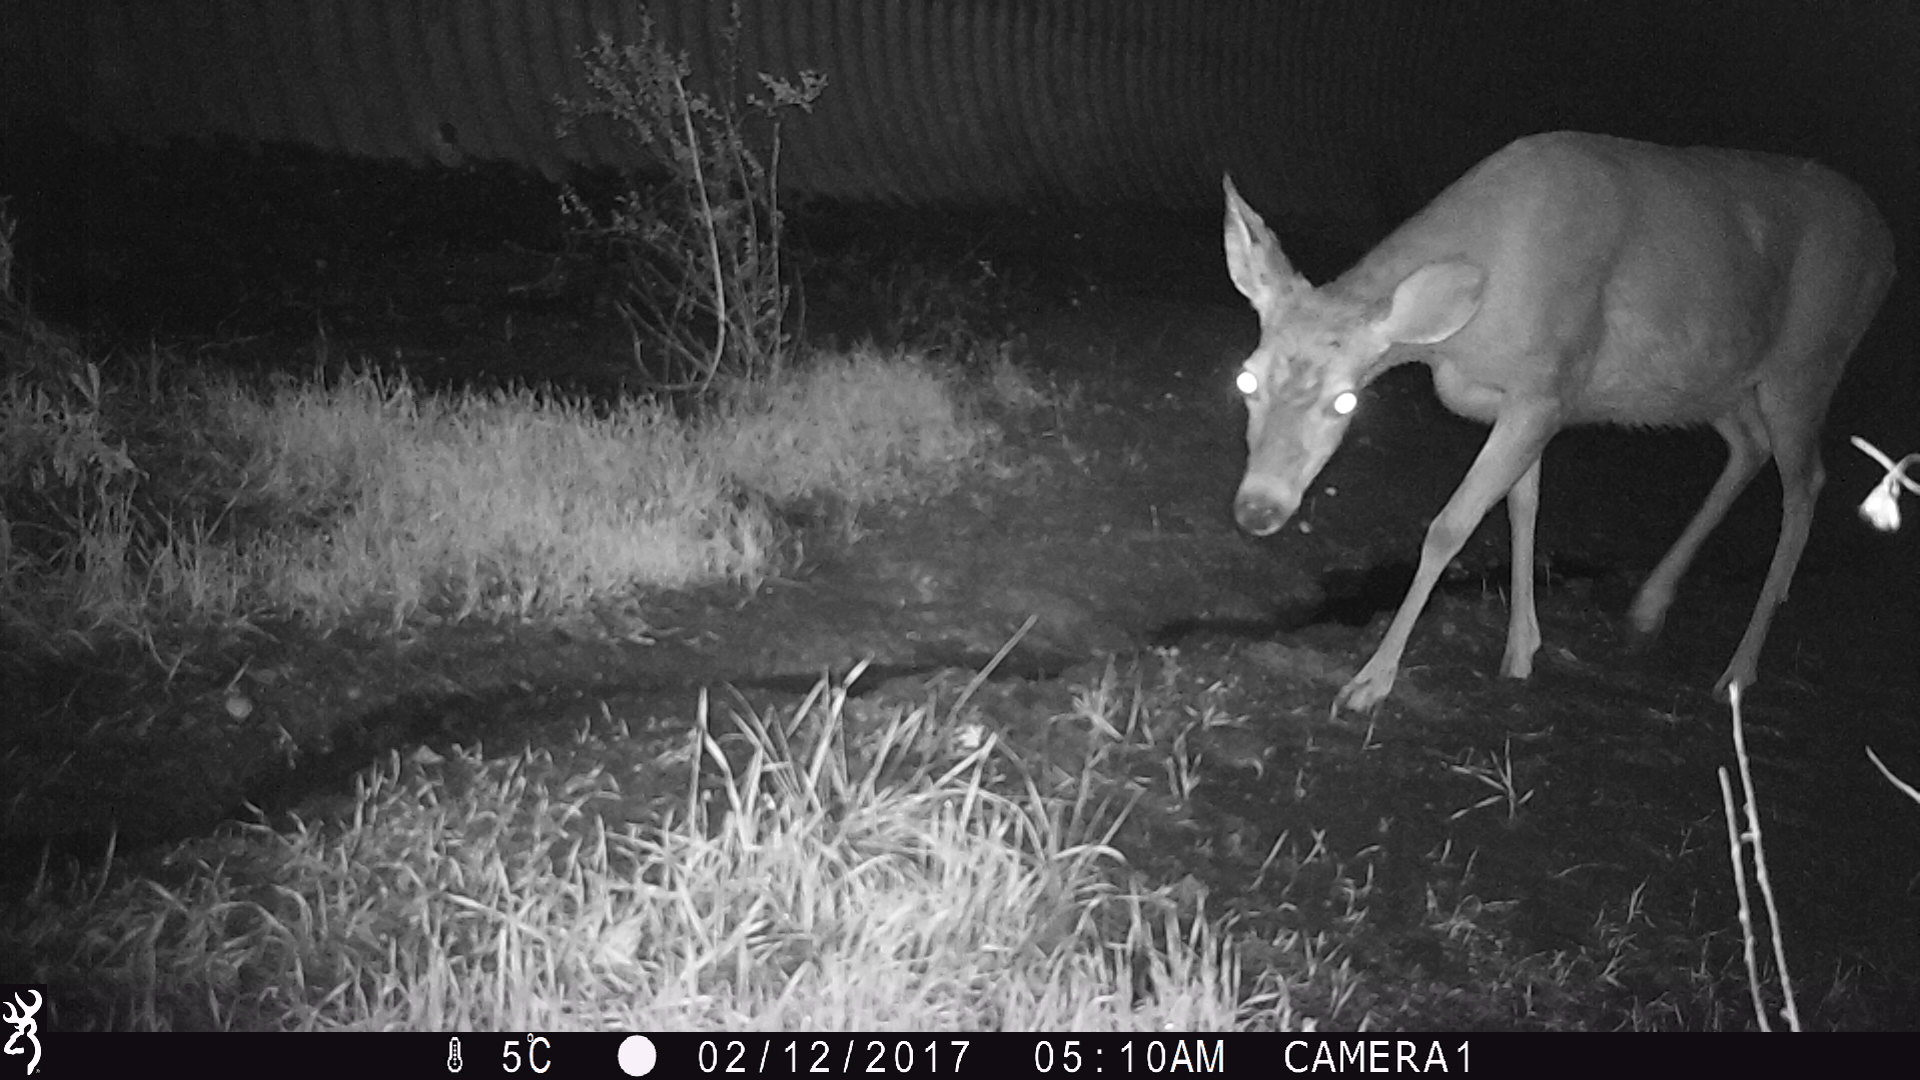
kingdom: Animalia
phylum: Chordata
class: Mammalia
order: Artiodactyla
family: Cervidae
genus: Odocoileus
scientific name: Odocoileus hemionus
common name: Mule deer
